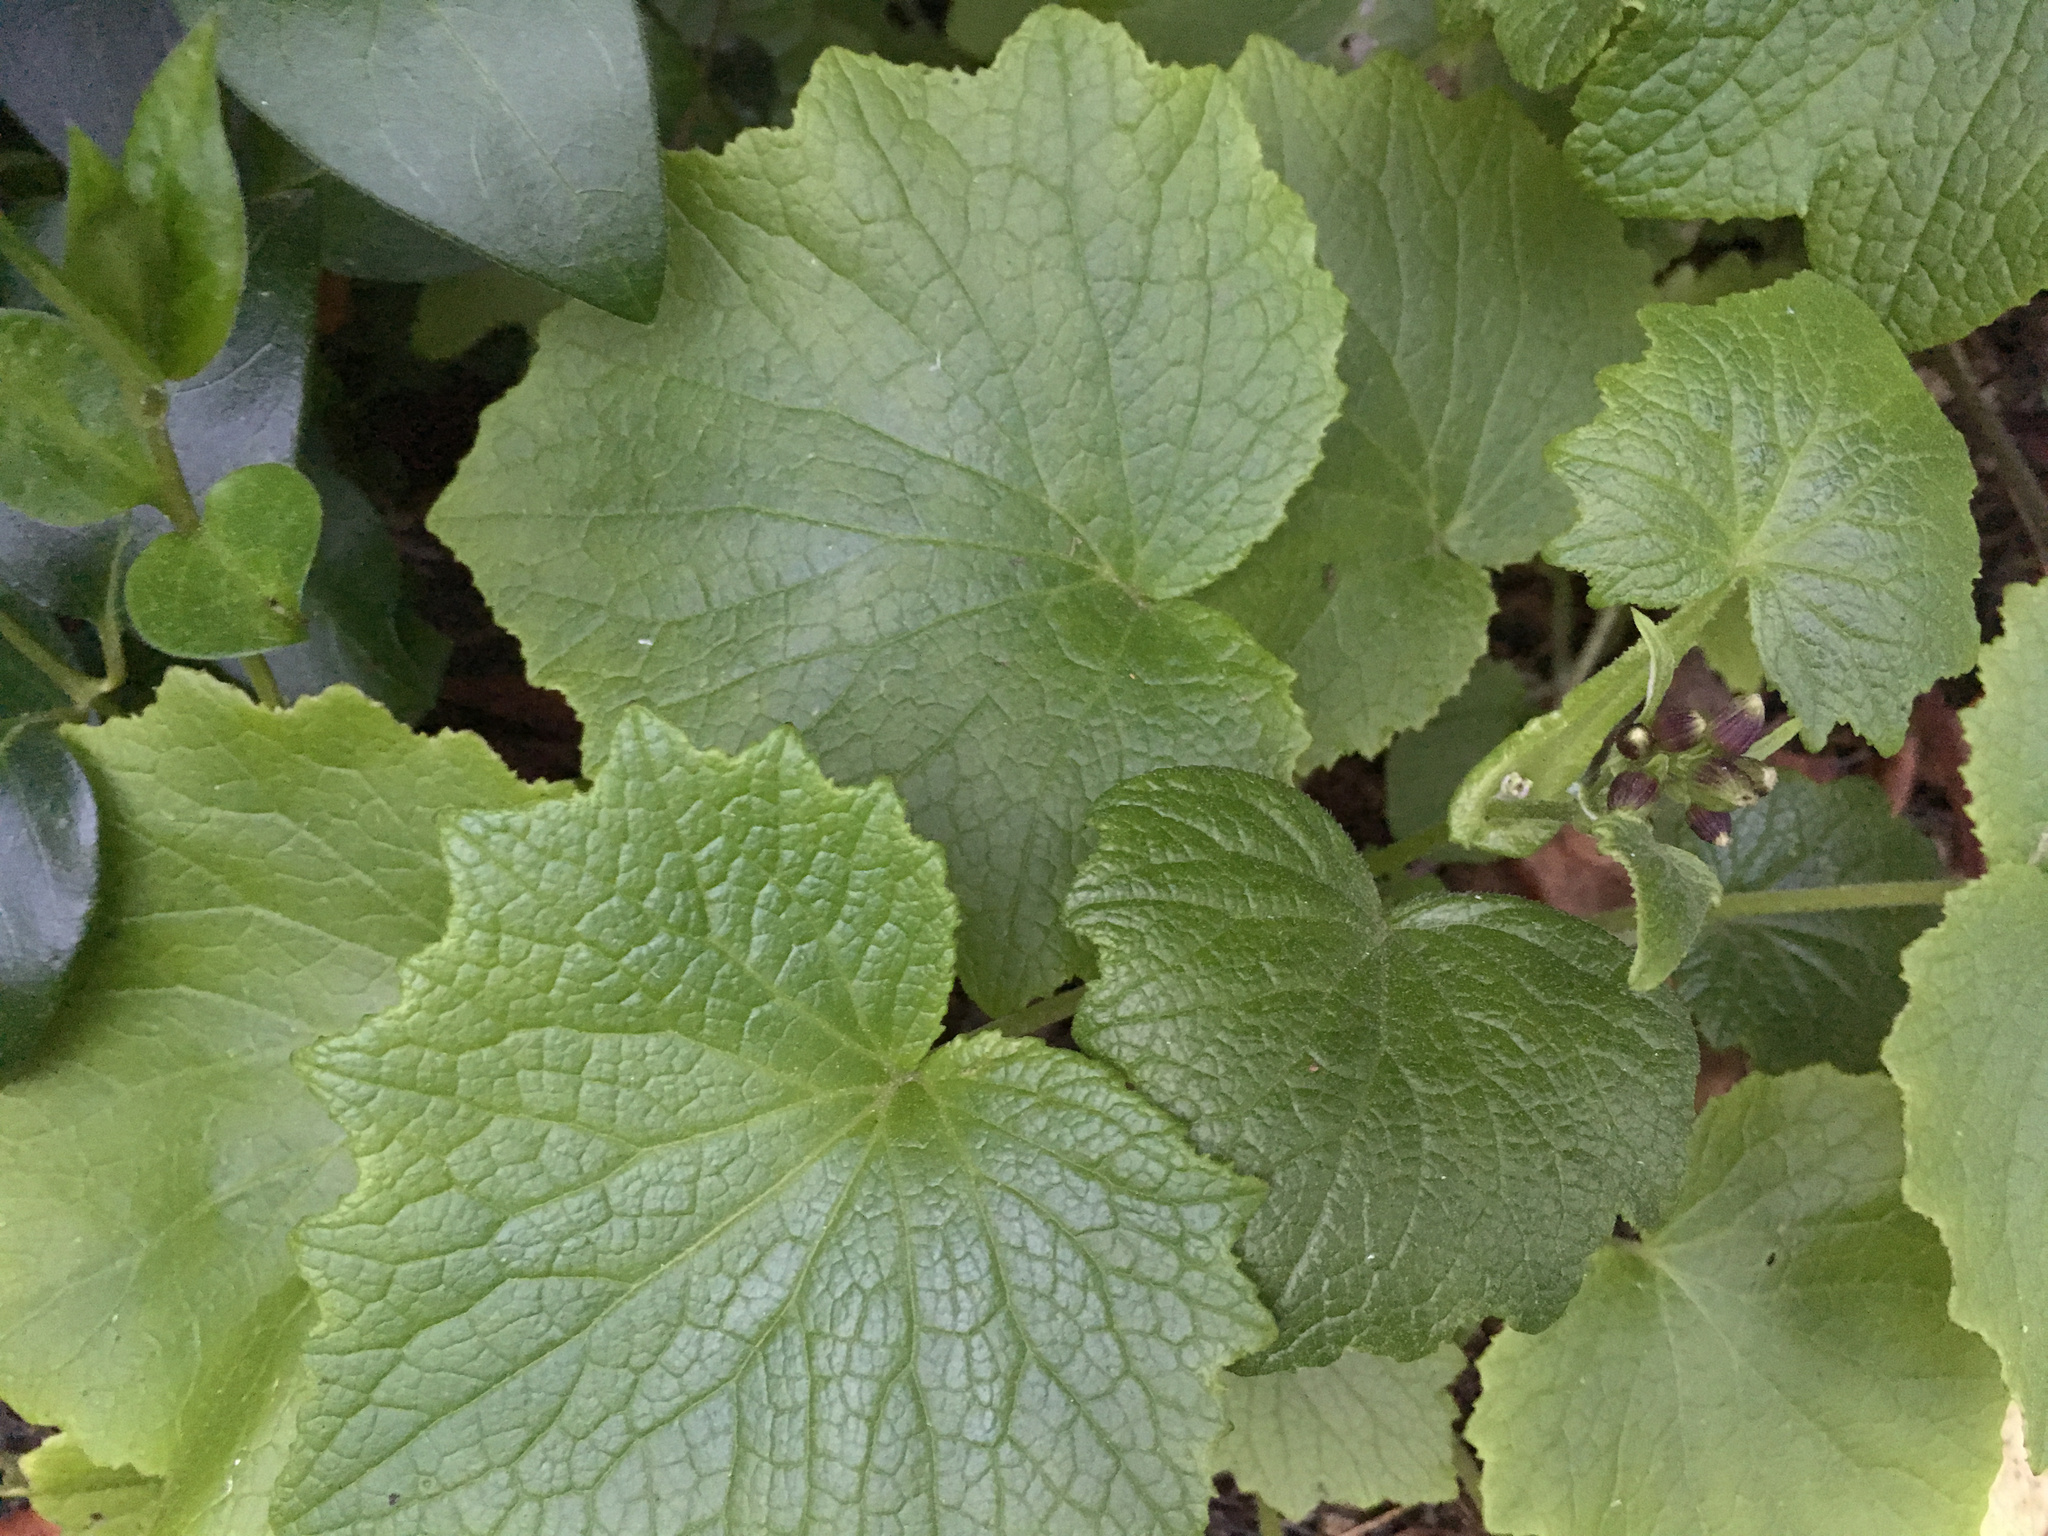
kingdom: Plantae
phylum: Tracheophyta
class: Magnoliopsida
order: Asterales
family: Asteraceae
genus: Pericallis
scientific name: Pericallis hybrida
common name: Cineraria
